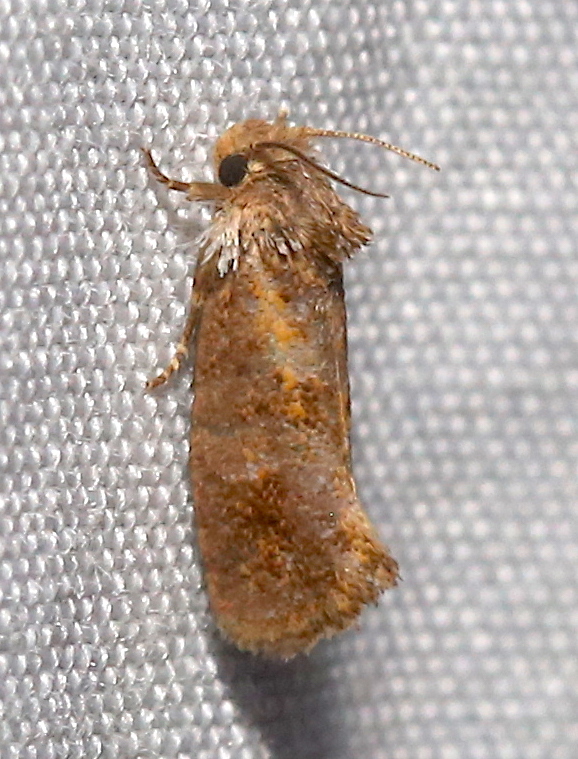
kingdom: Animalia
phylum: Arthropoda
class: Insecta
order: Lepidoptera
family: Tineidae
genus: Acrolophus
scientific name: Acrolophus panamae
